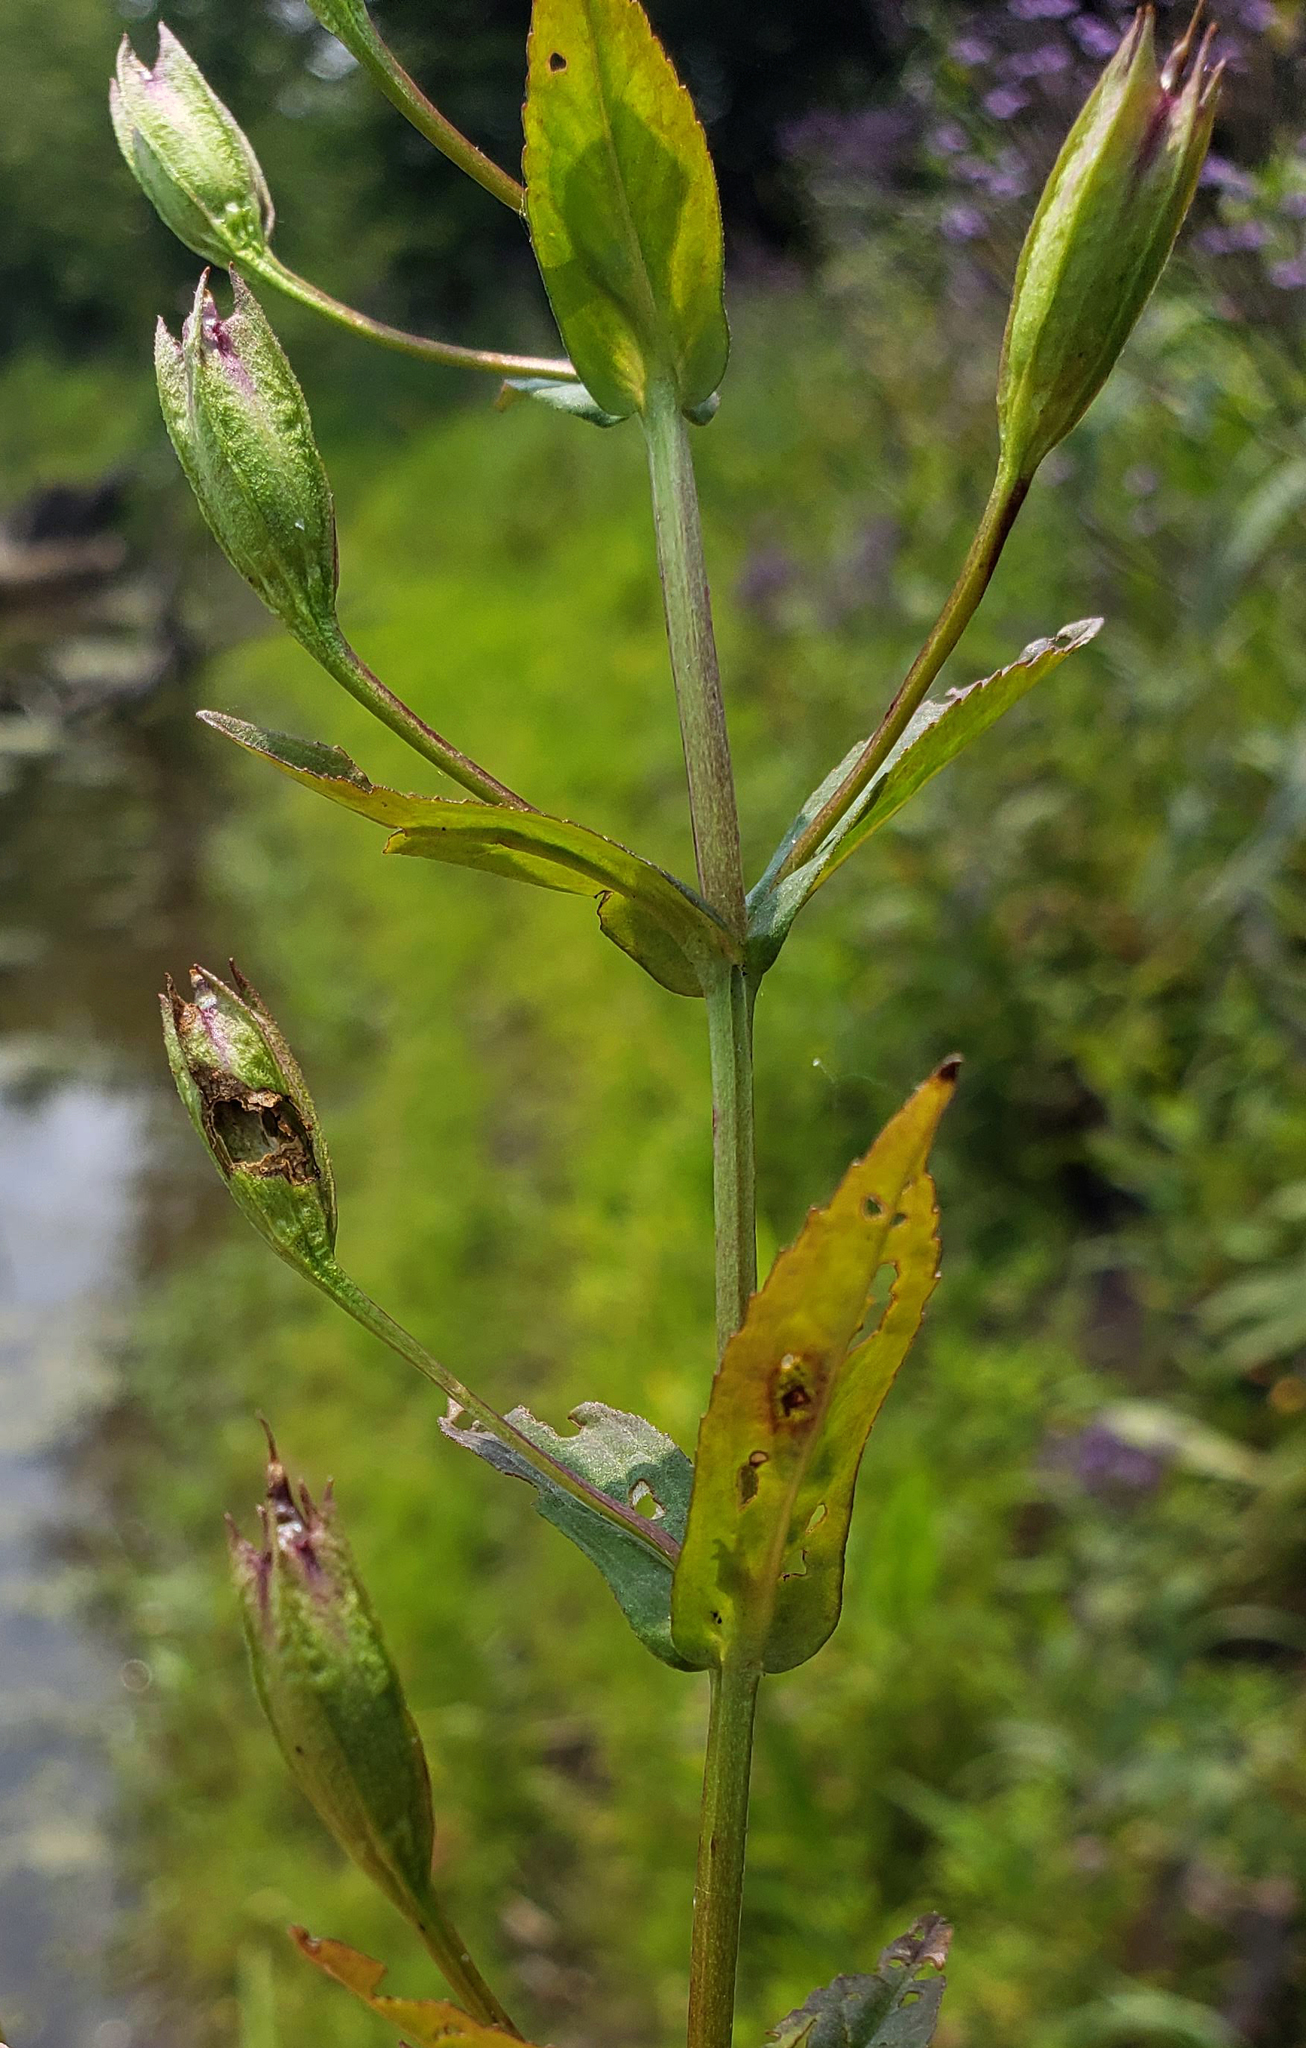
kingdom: Plantae
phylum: Tracheophyta
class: Magnoliopsida
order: Lamiales
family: Phrymaceae
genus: Mimulus
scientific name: Mimulus ringens
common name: Allegheny monkeyflower
